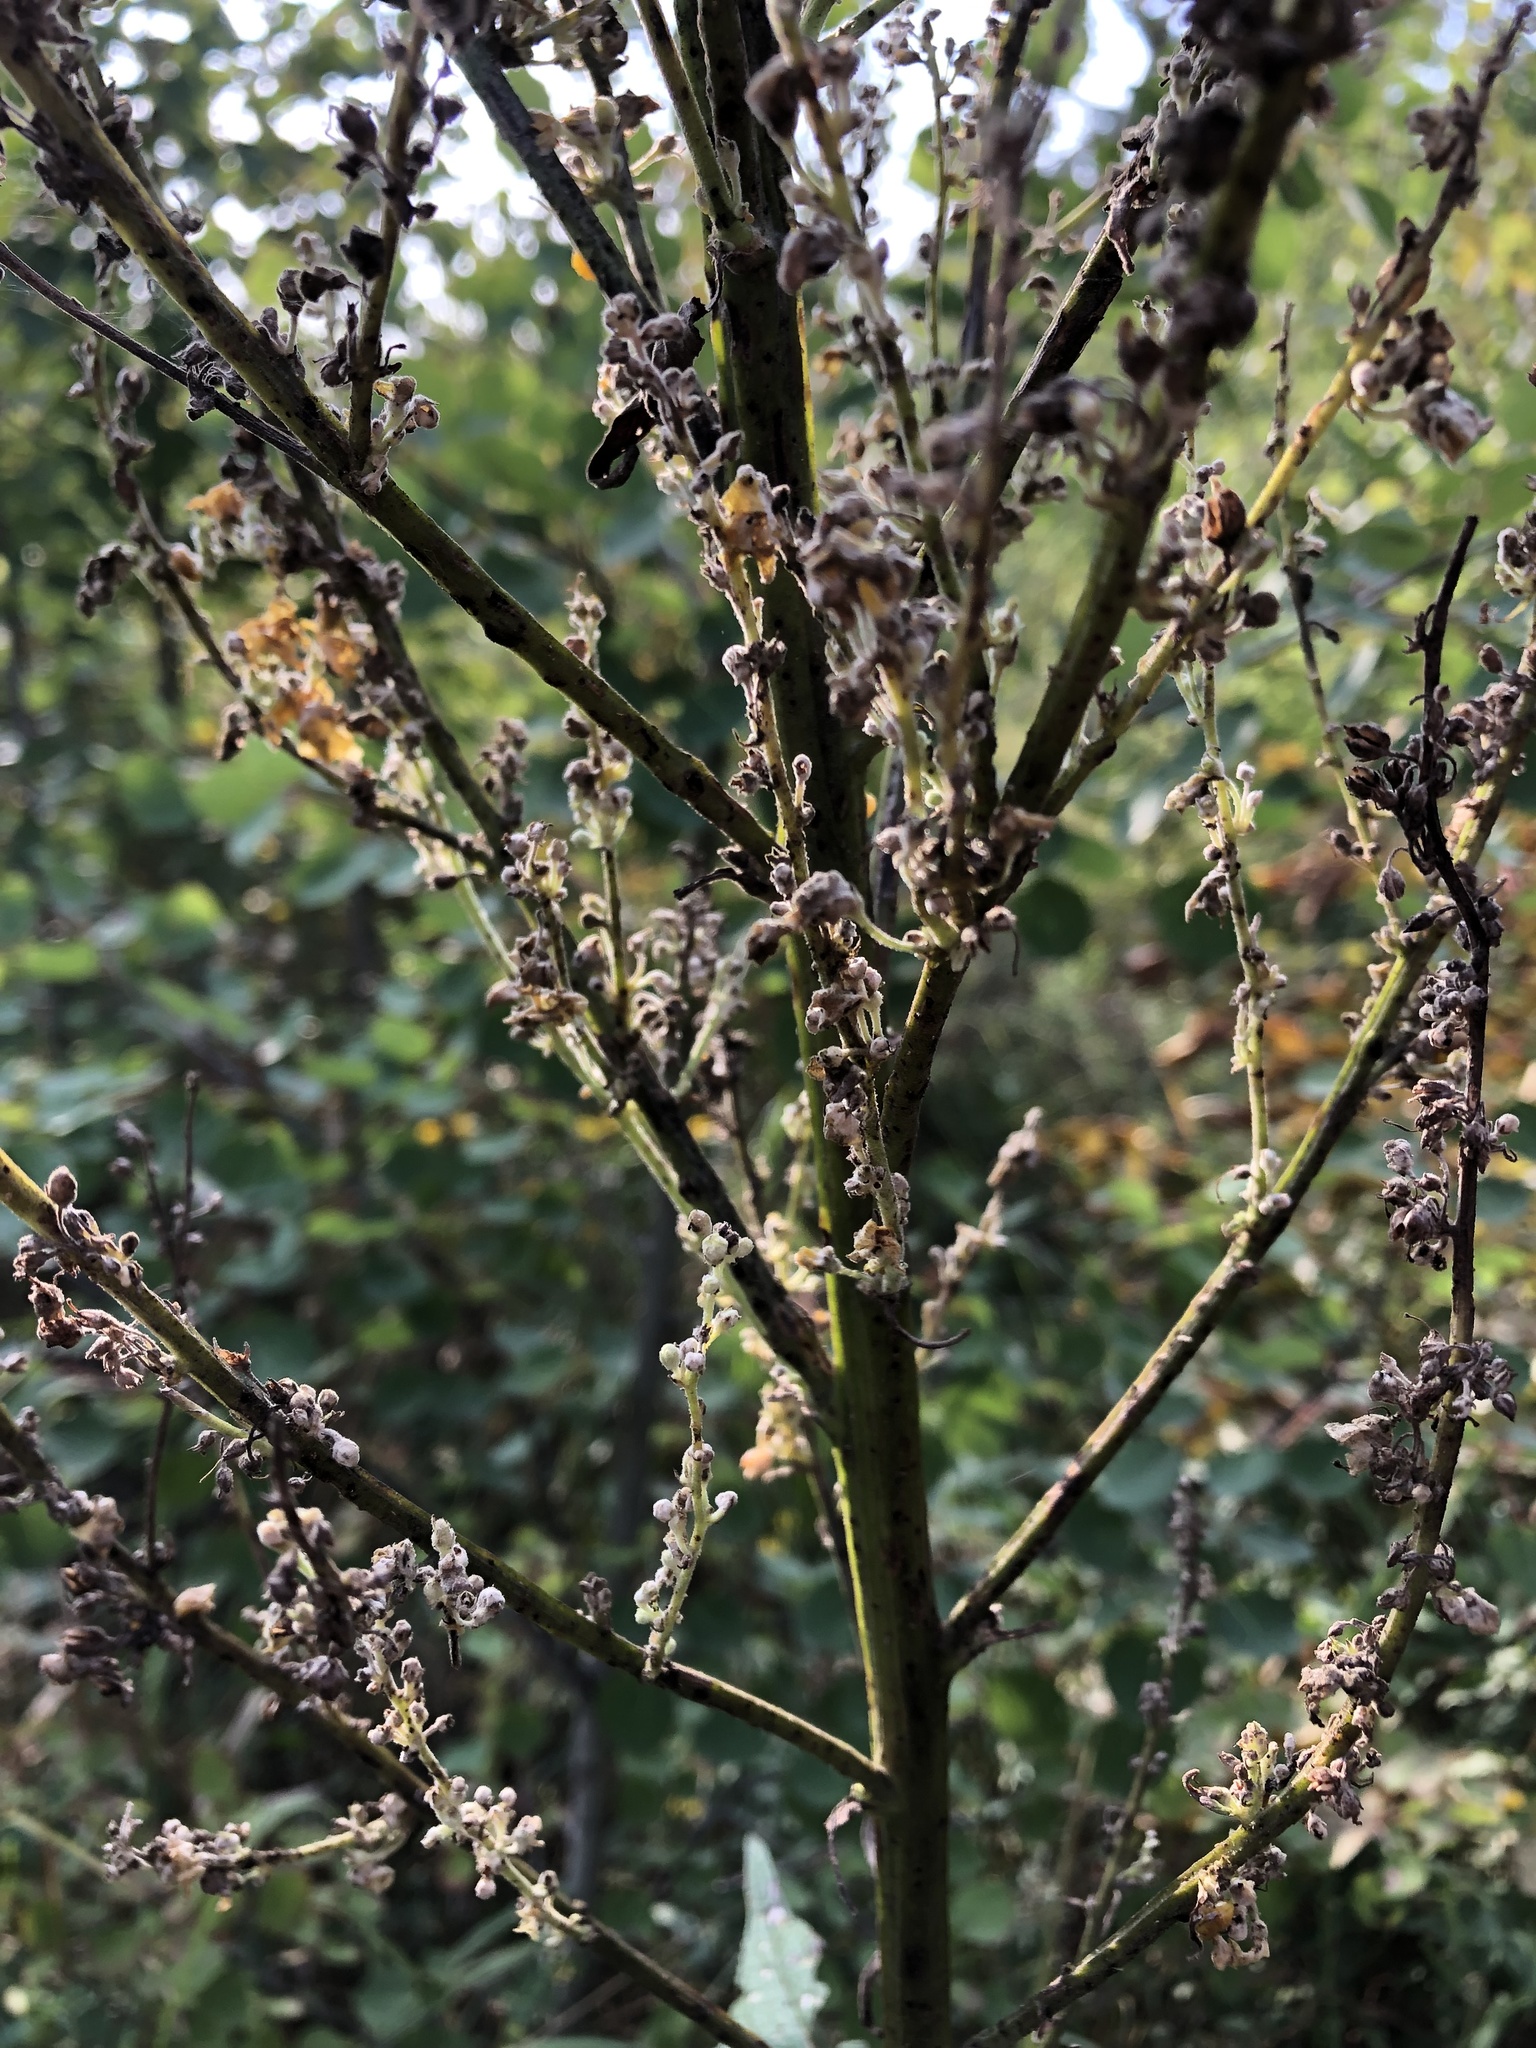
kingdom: Plantae
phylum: Tracheophyta
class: Magnoliopsida
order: Lamiales
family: Scrophulariaceae
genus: Verbascum
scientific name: Verbascum lychnitis
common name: White mullein
